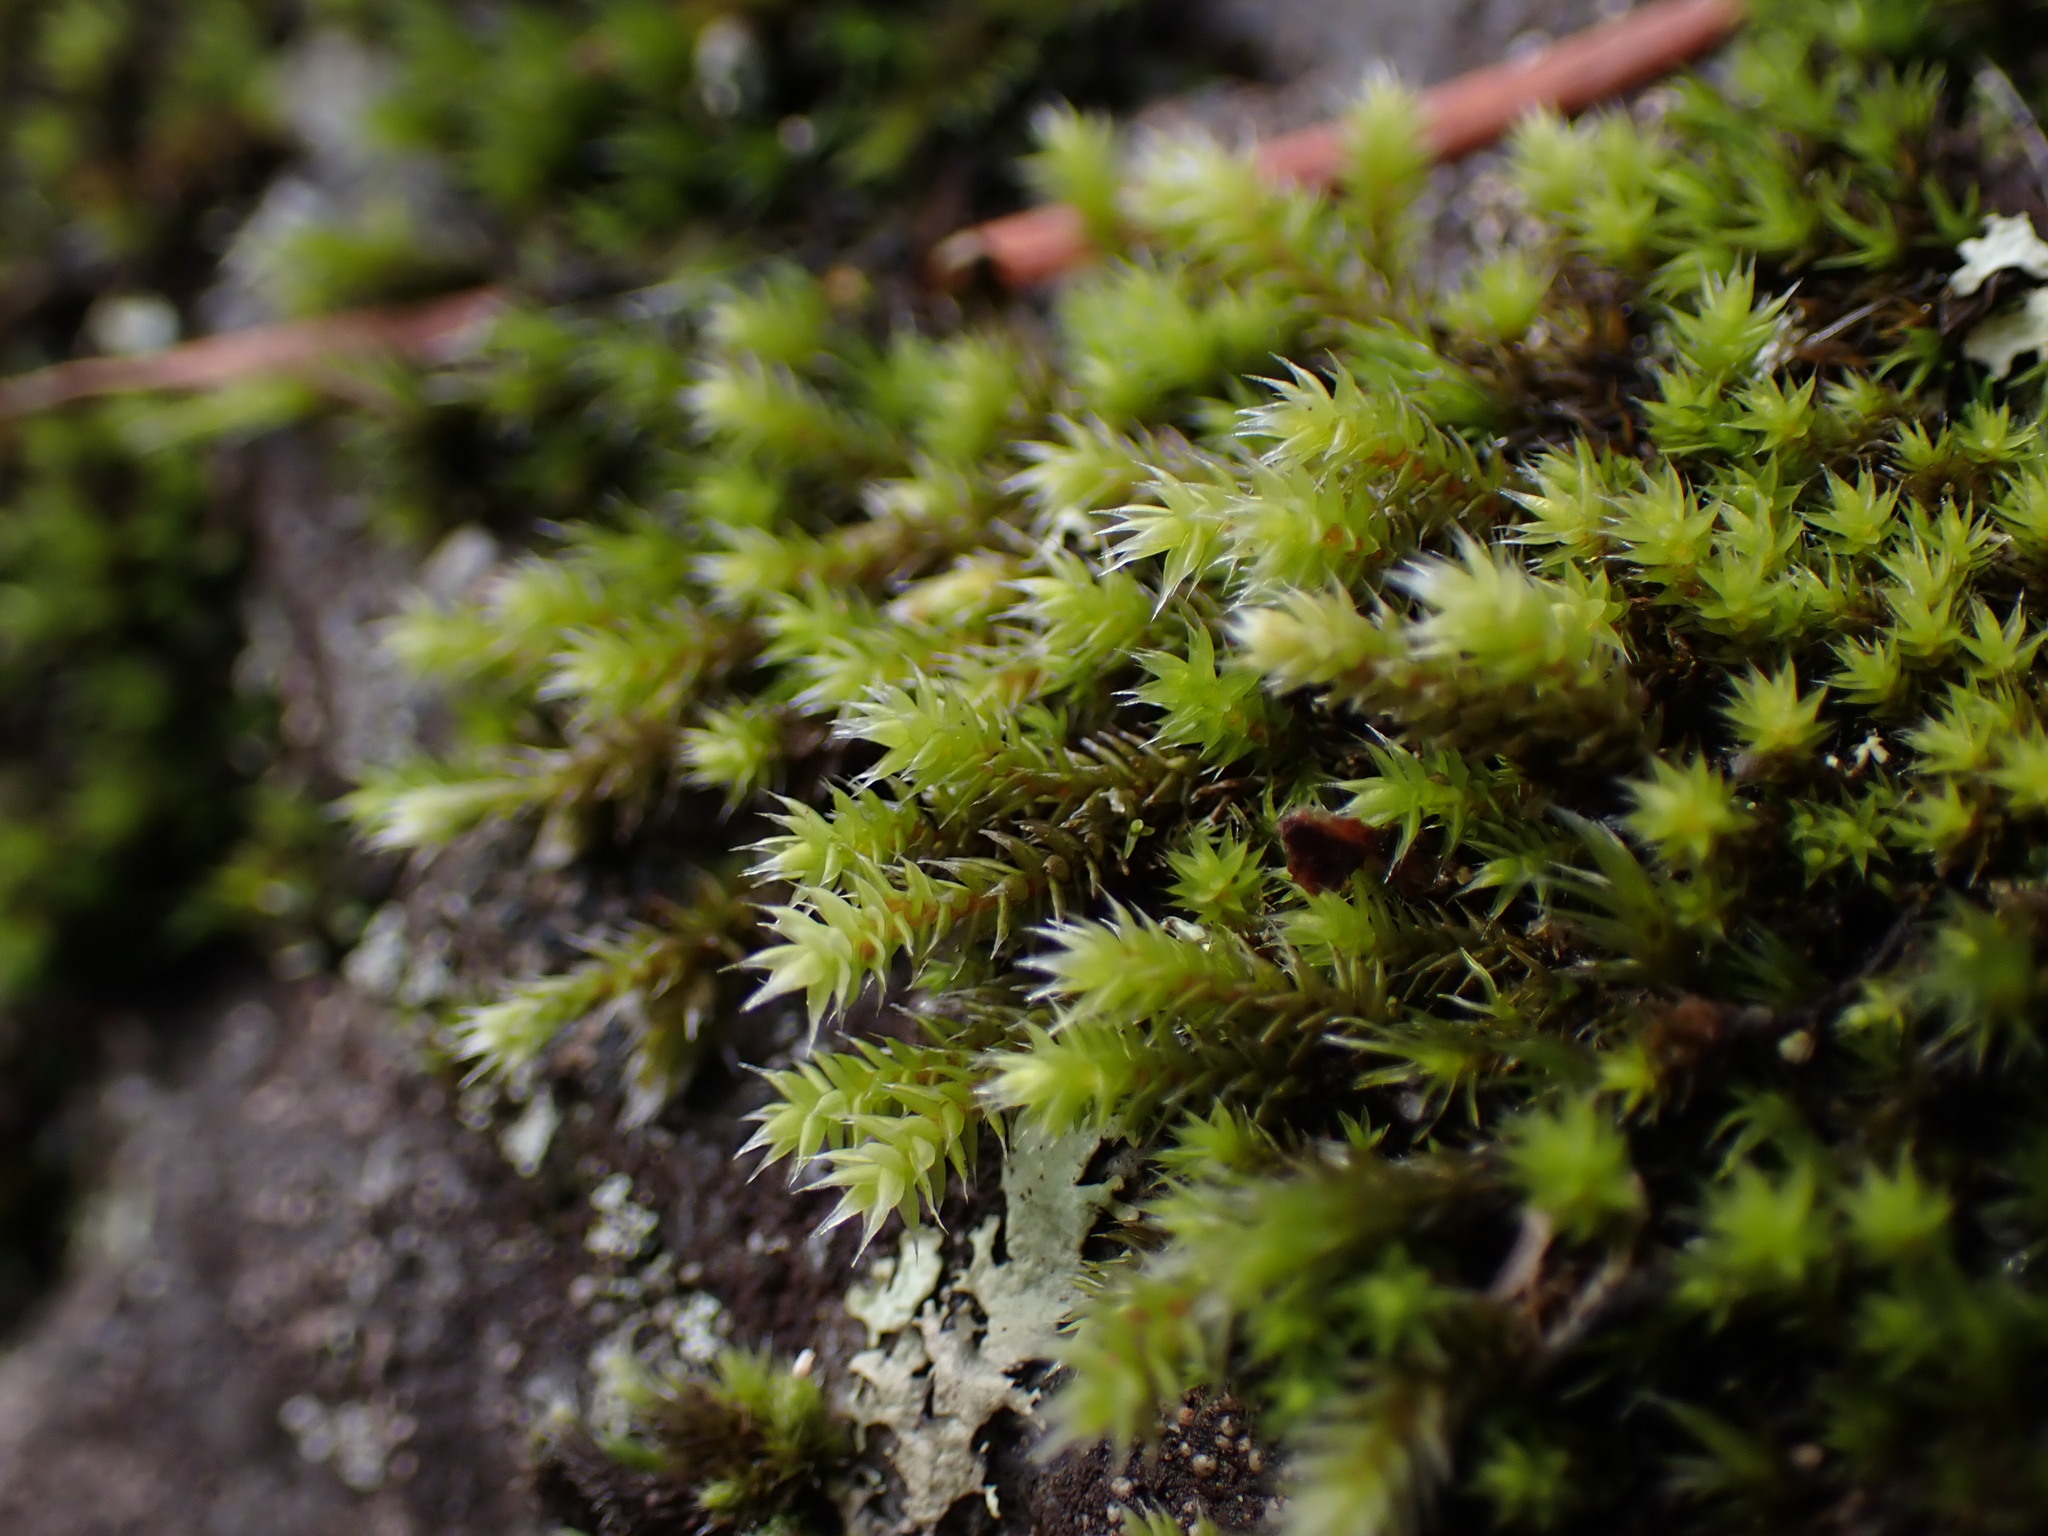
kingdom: Plantae
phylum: Bryophyta
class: Bryopsida
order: Hedwigiales
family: Hedwigiaceae
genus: Hedwigia
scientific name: Hedwigia stellata
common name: Starry hoar-moss
